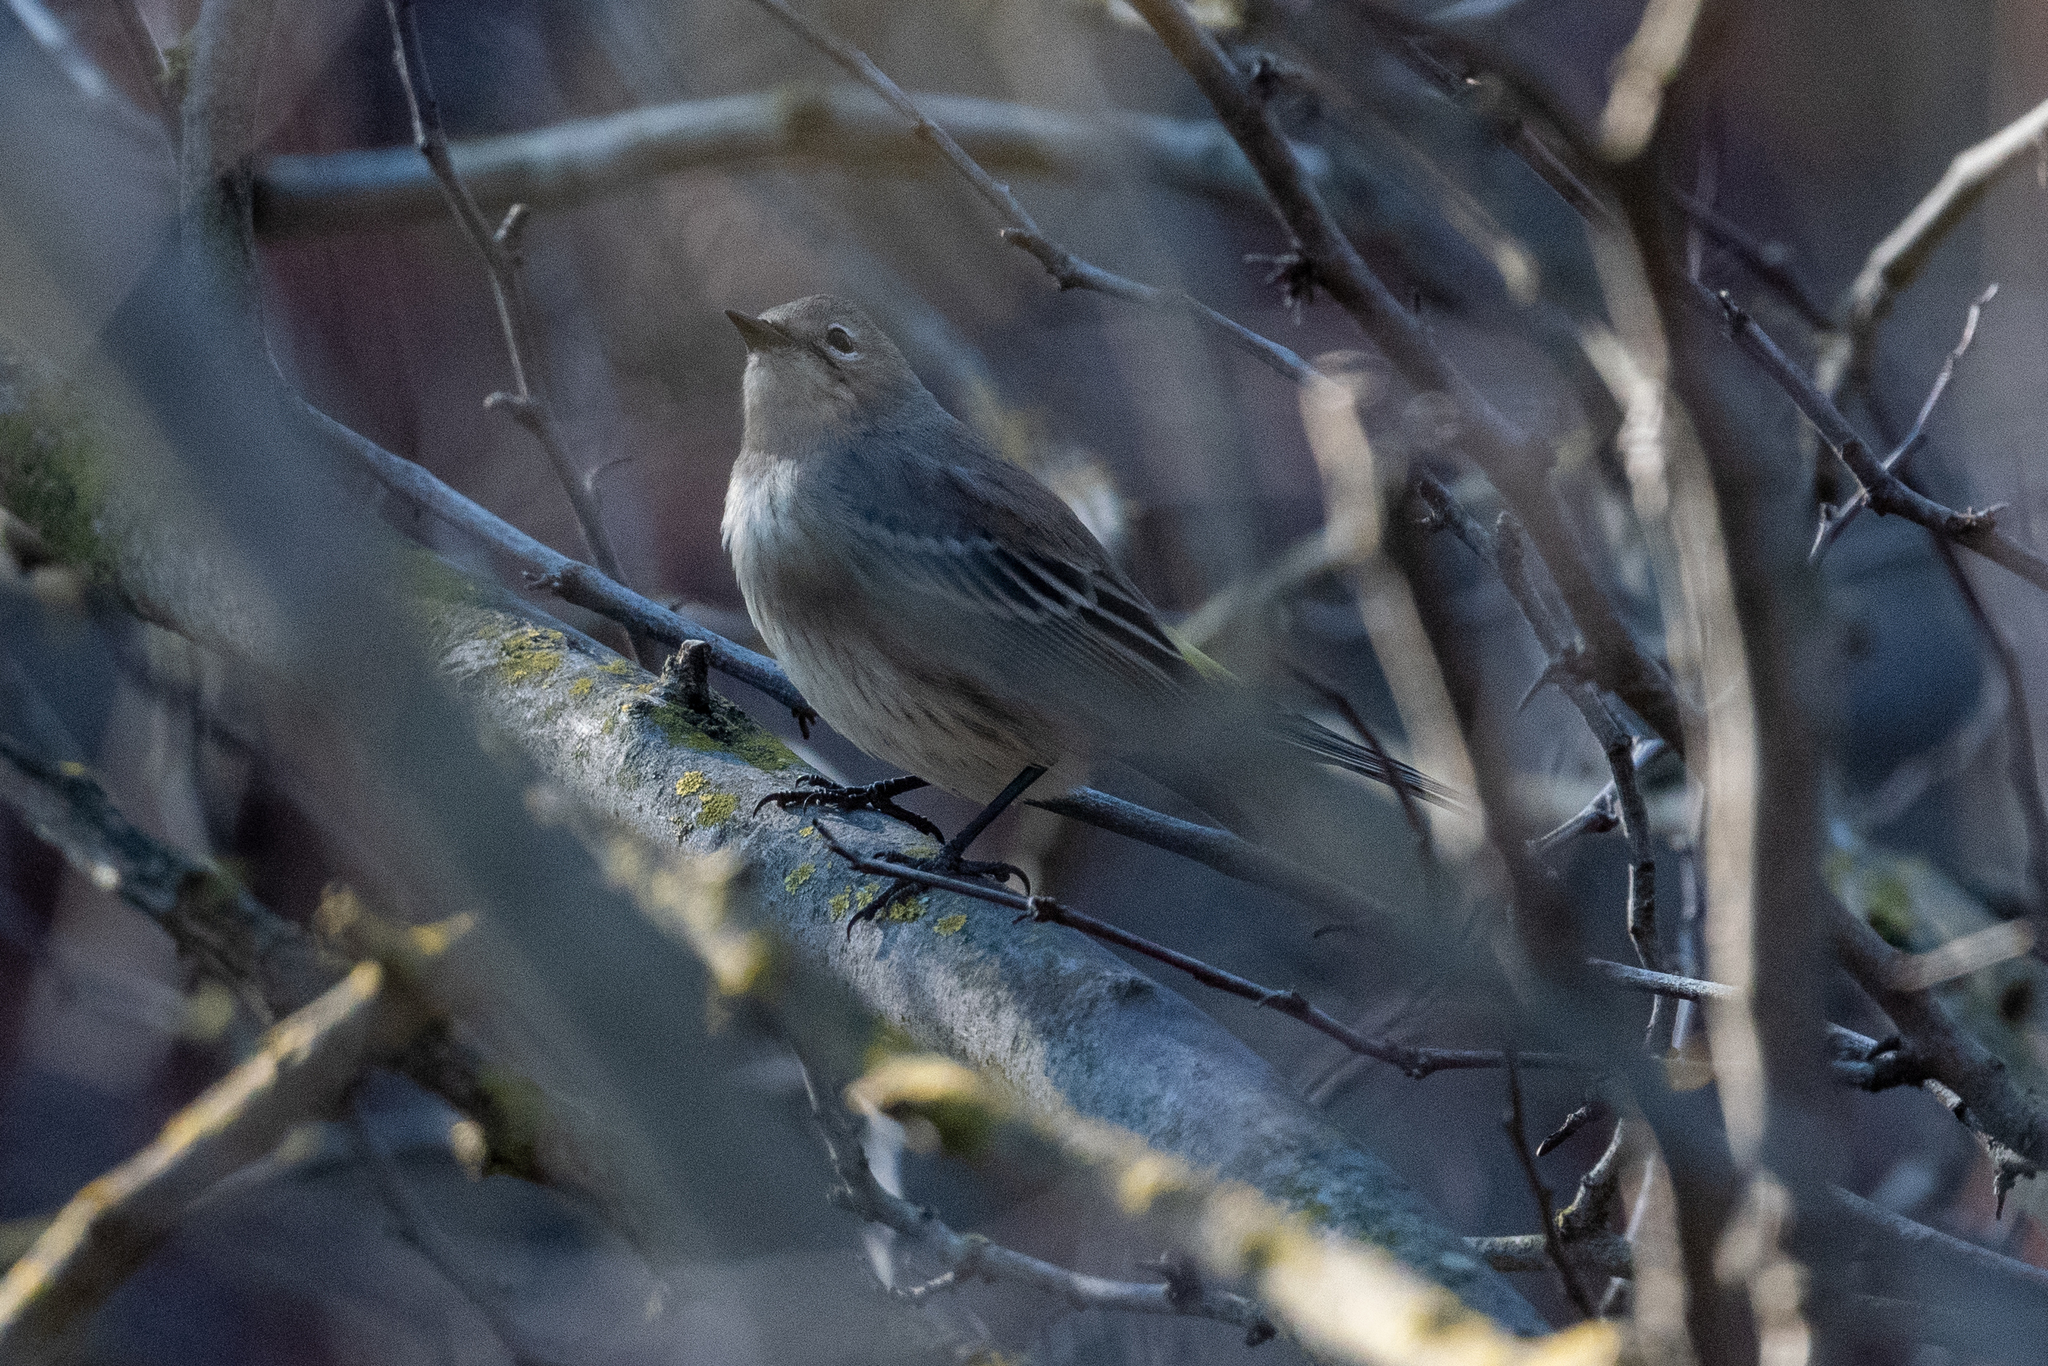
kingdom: Animalia
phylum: Chordata
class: Aves
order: Passeriformes
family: Parulidae
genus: Setophaga
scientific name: Setophaga coronata
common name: Myrtle warbler
